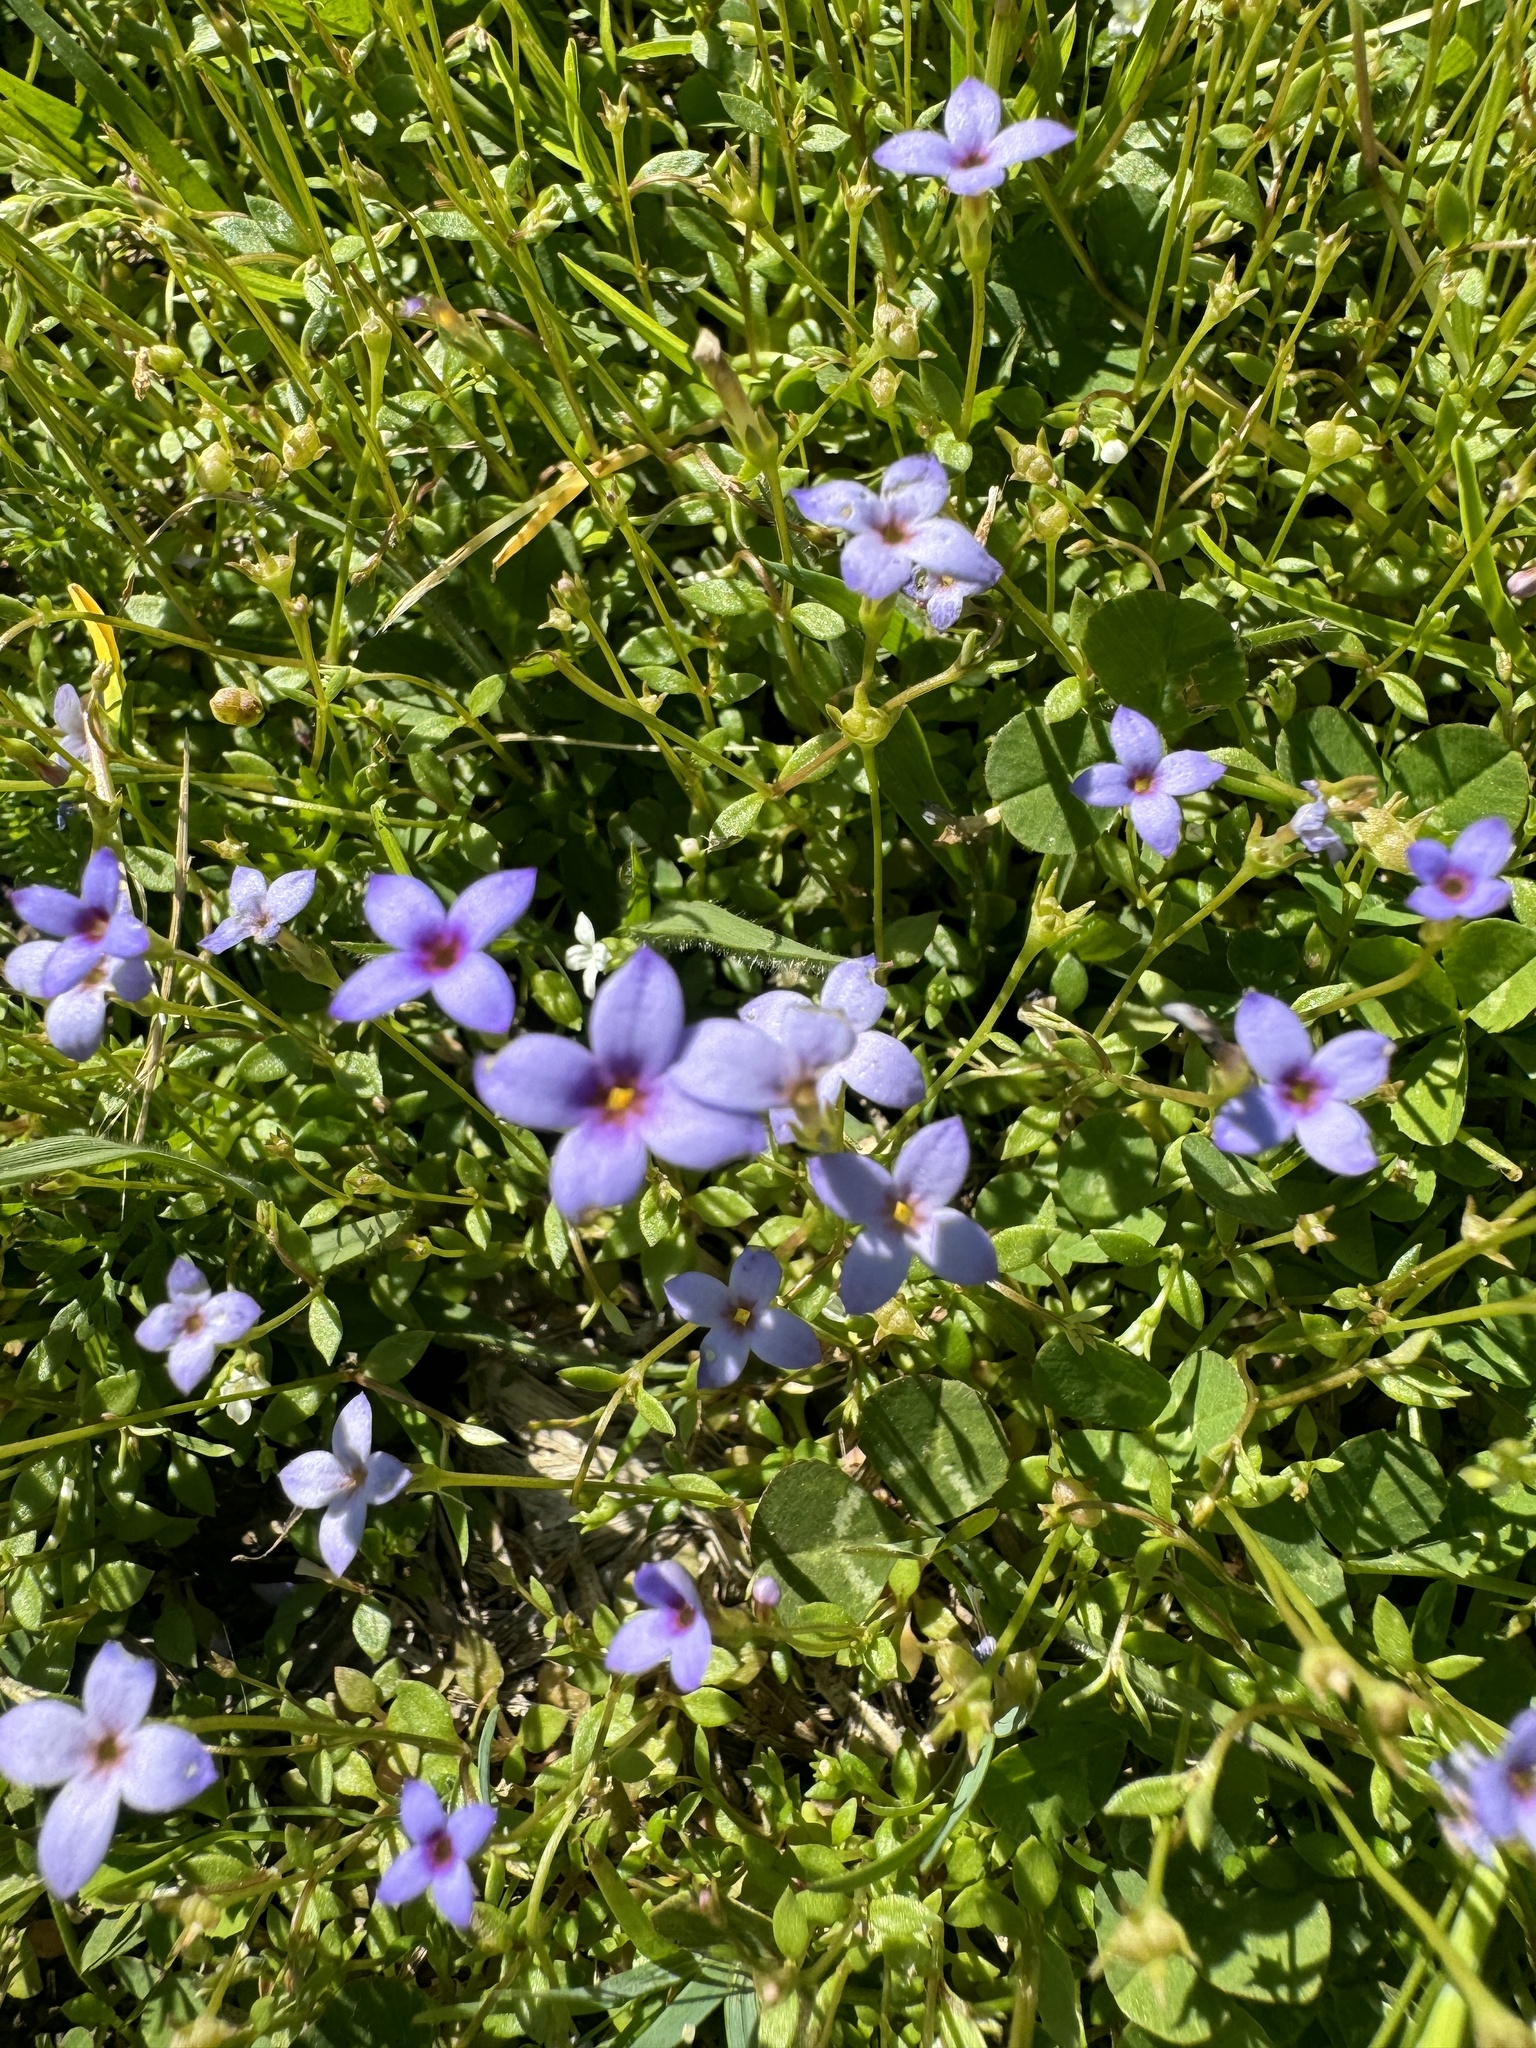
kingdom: Plantae
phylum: Tracheophyta
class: Magnoliopsida
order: Gentianales
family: Rubiaceae
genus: Houstonia
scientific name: Houstonia pusilla
